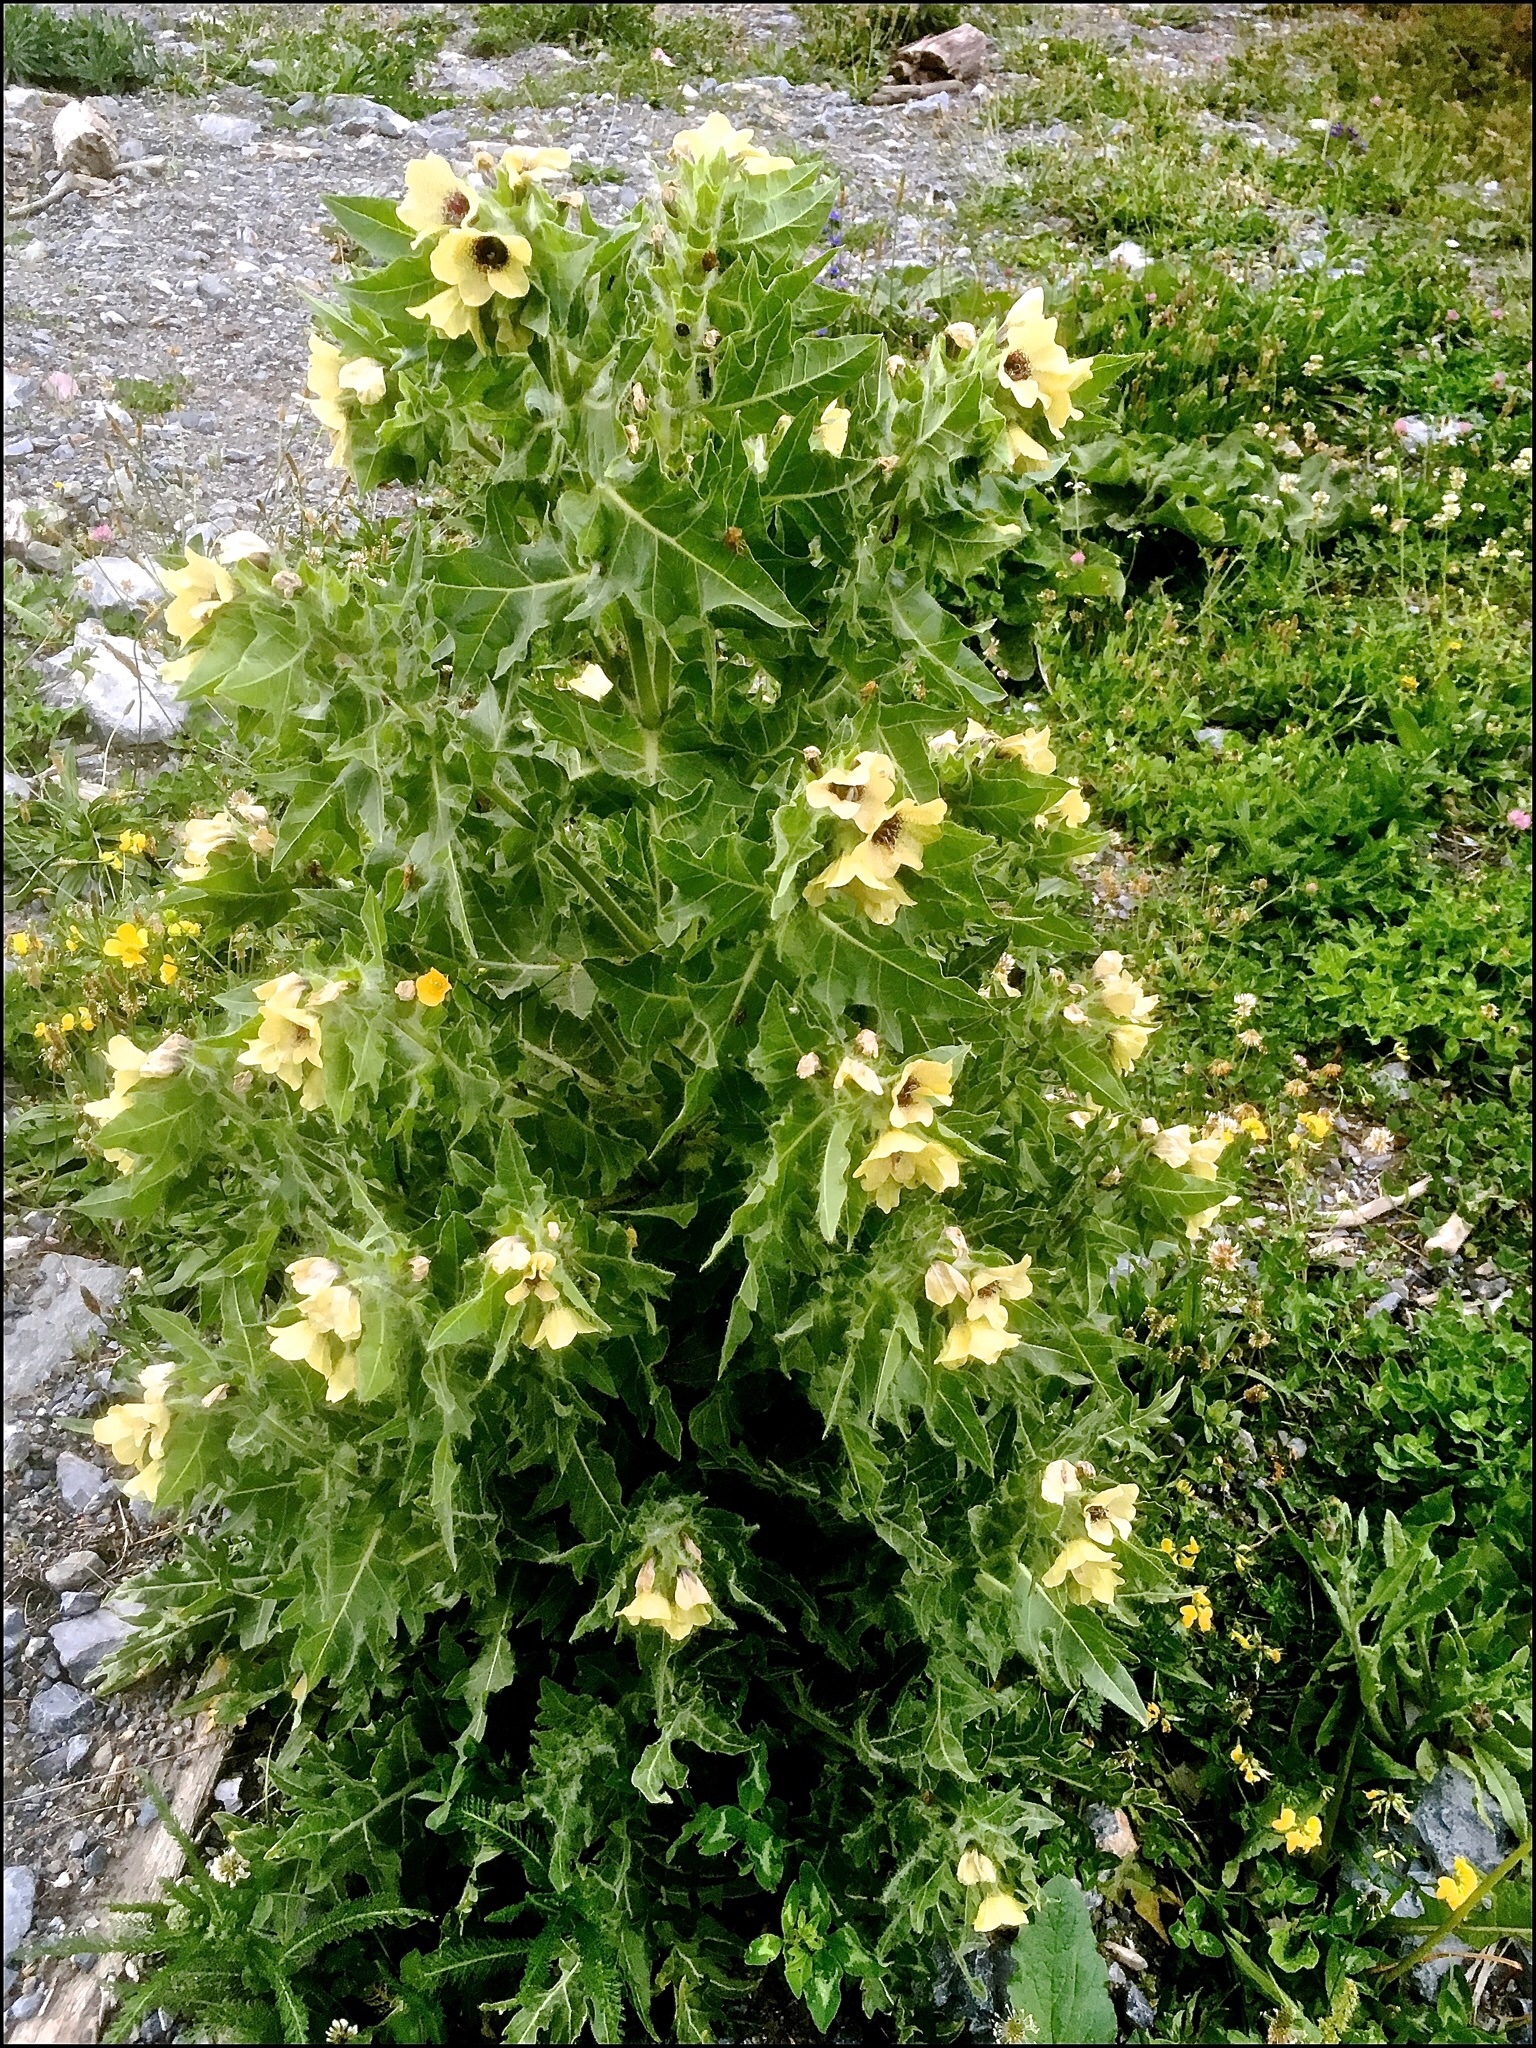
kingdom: Plantae
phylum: Tracheophyta
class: Magnoliopsida
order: Solanales
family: Solanaceae
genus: Hyoscyamus
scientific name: Hyoscyamus niger
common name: Henbane
